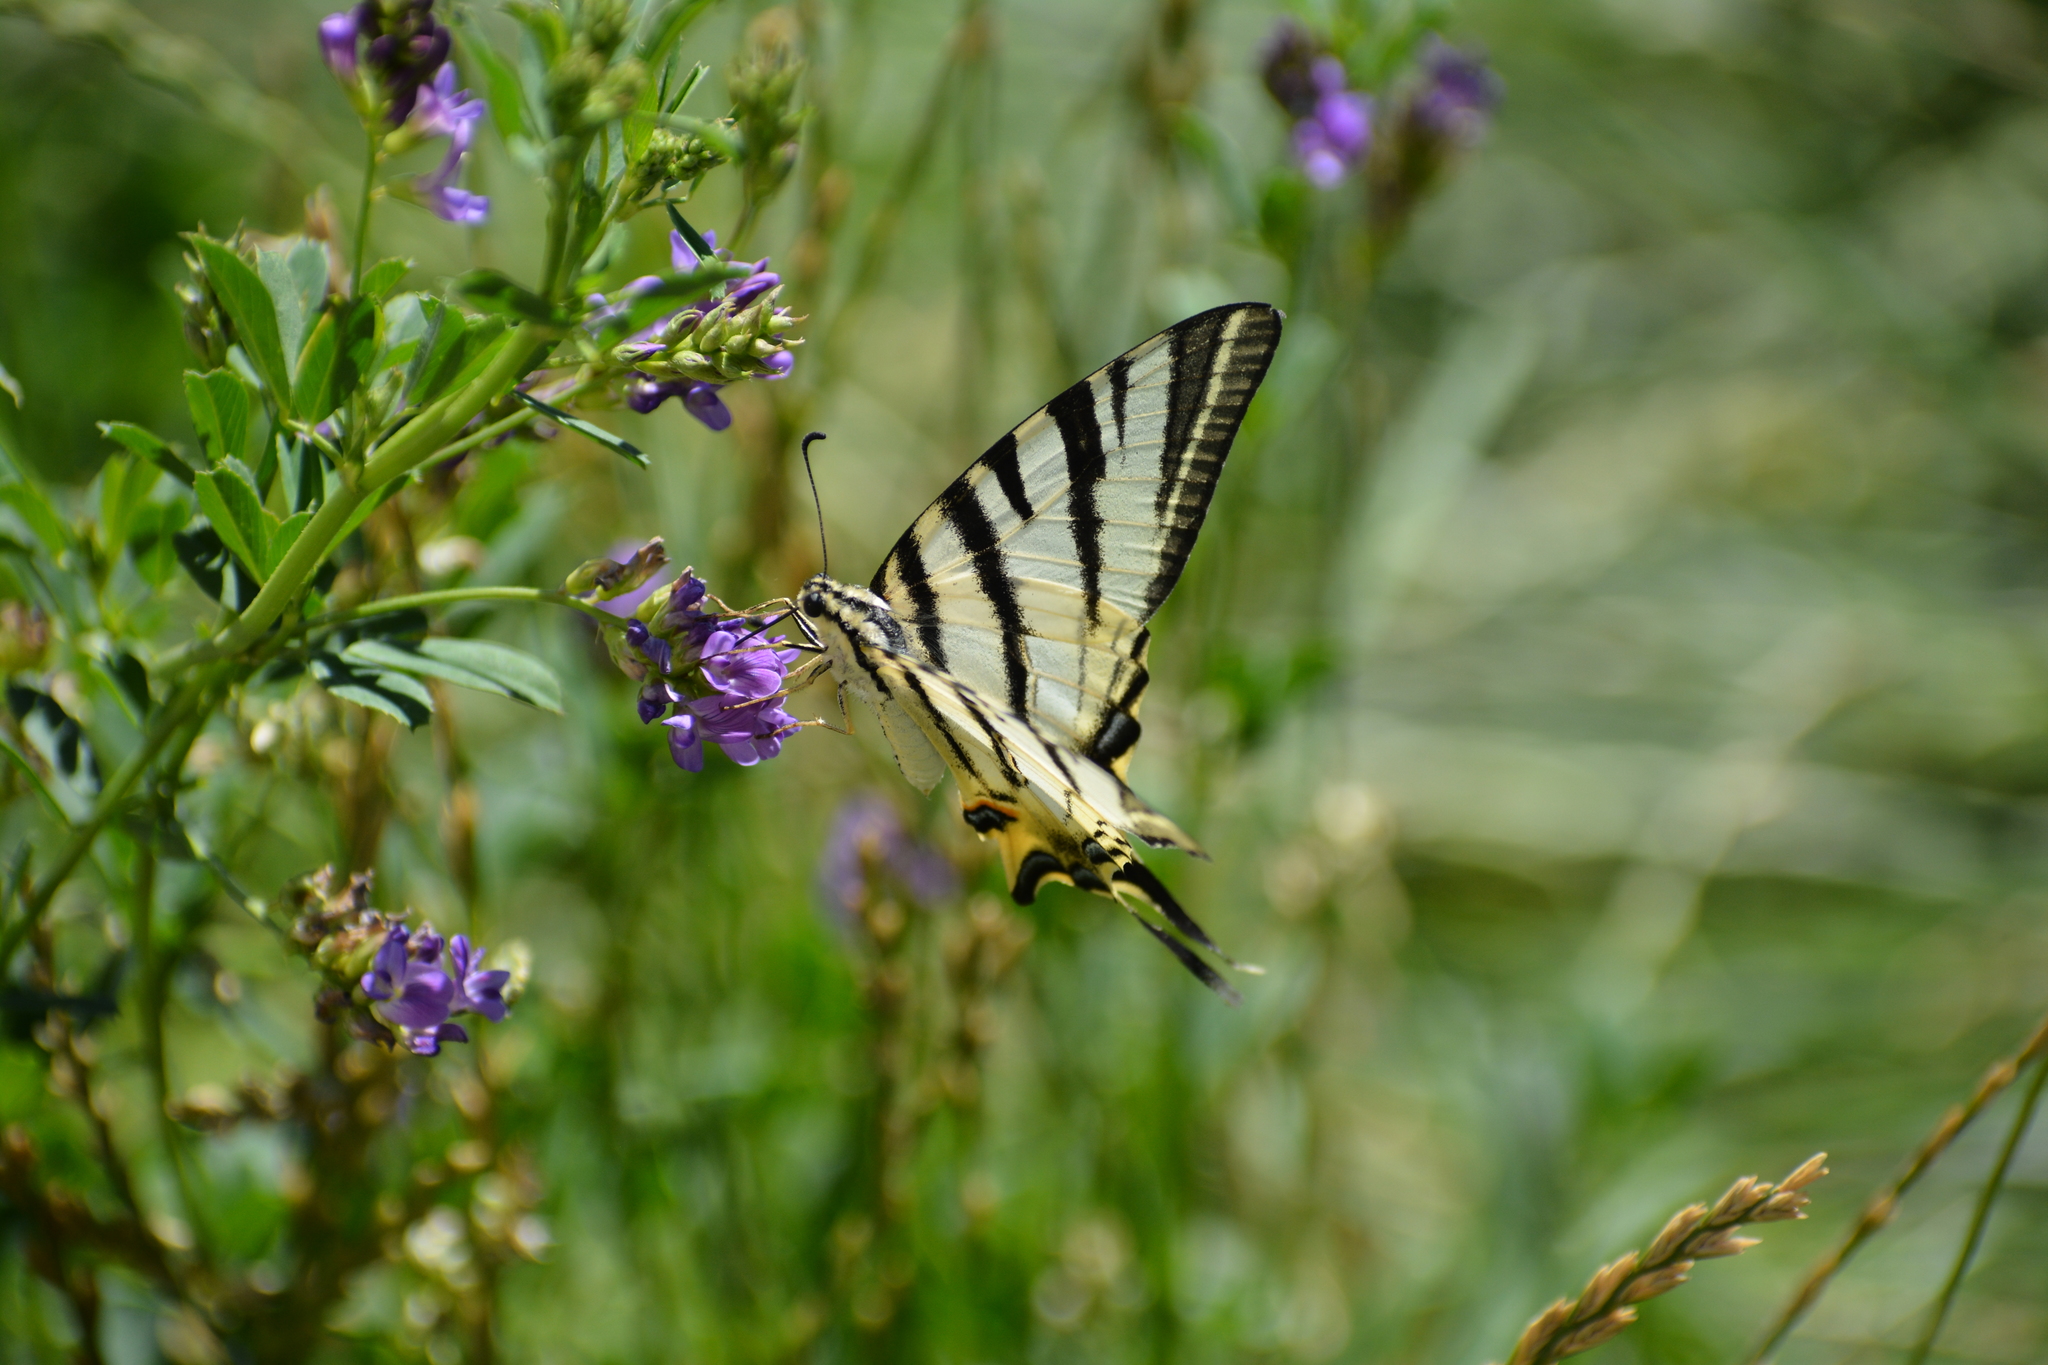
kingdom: Animalia
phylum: Arthropoda
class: Insecta
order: Lepidoptera
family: Papilionidae
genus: Iphiclides
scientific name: Iphiclides podalirius
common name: Scarce swallowtail
